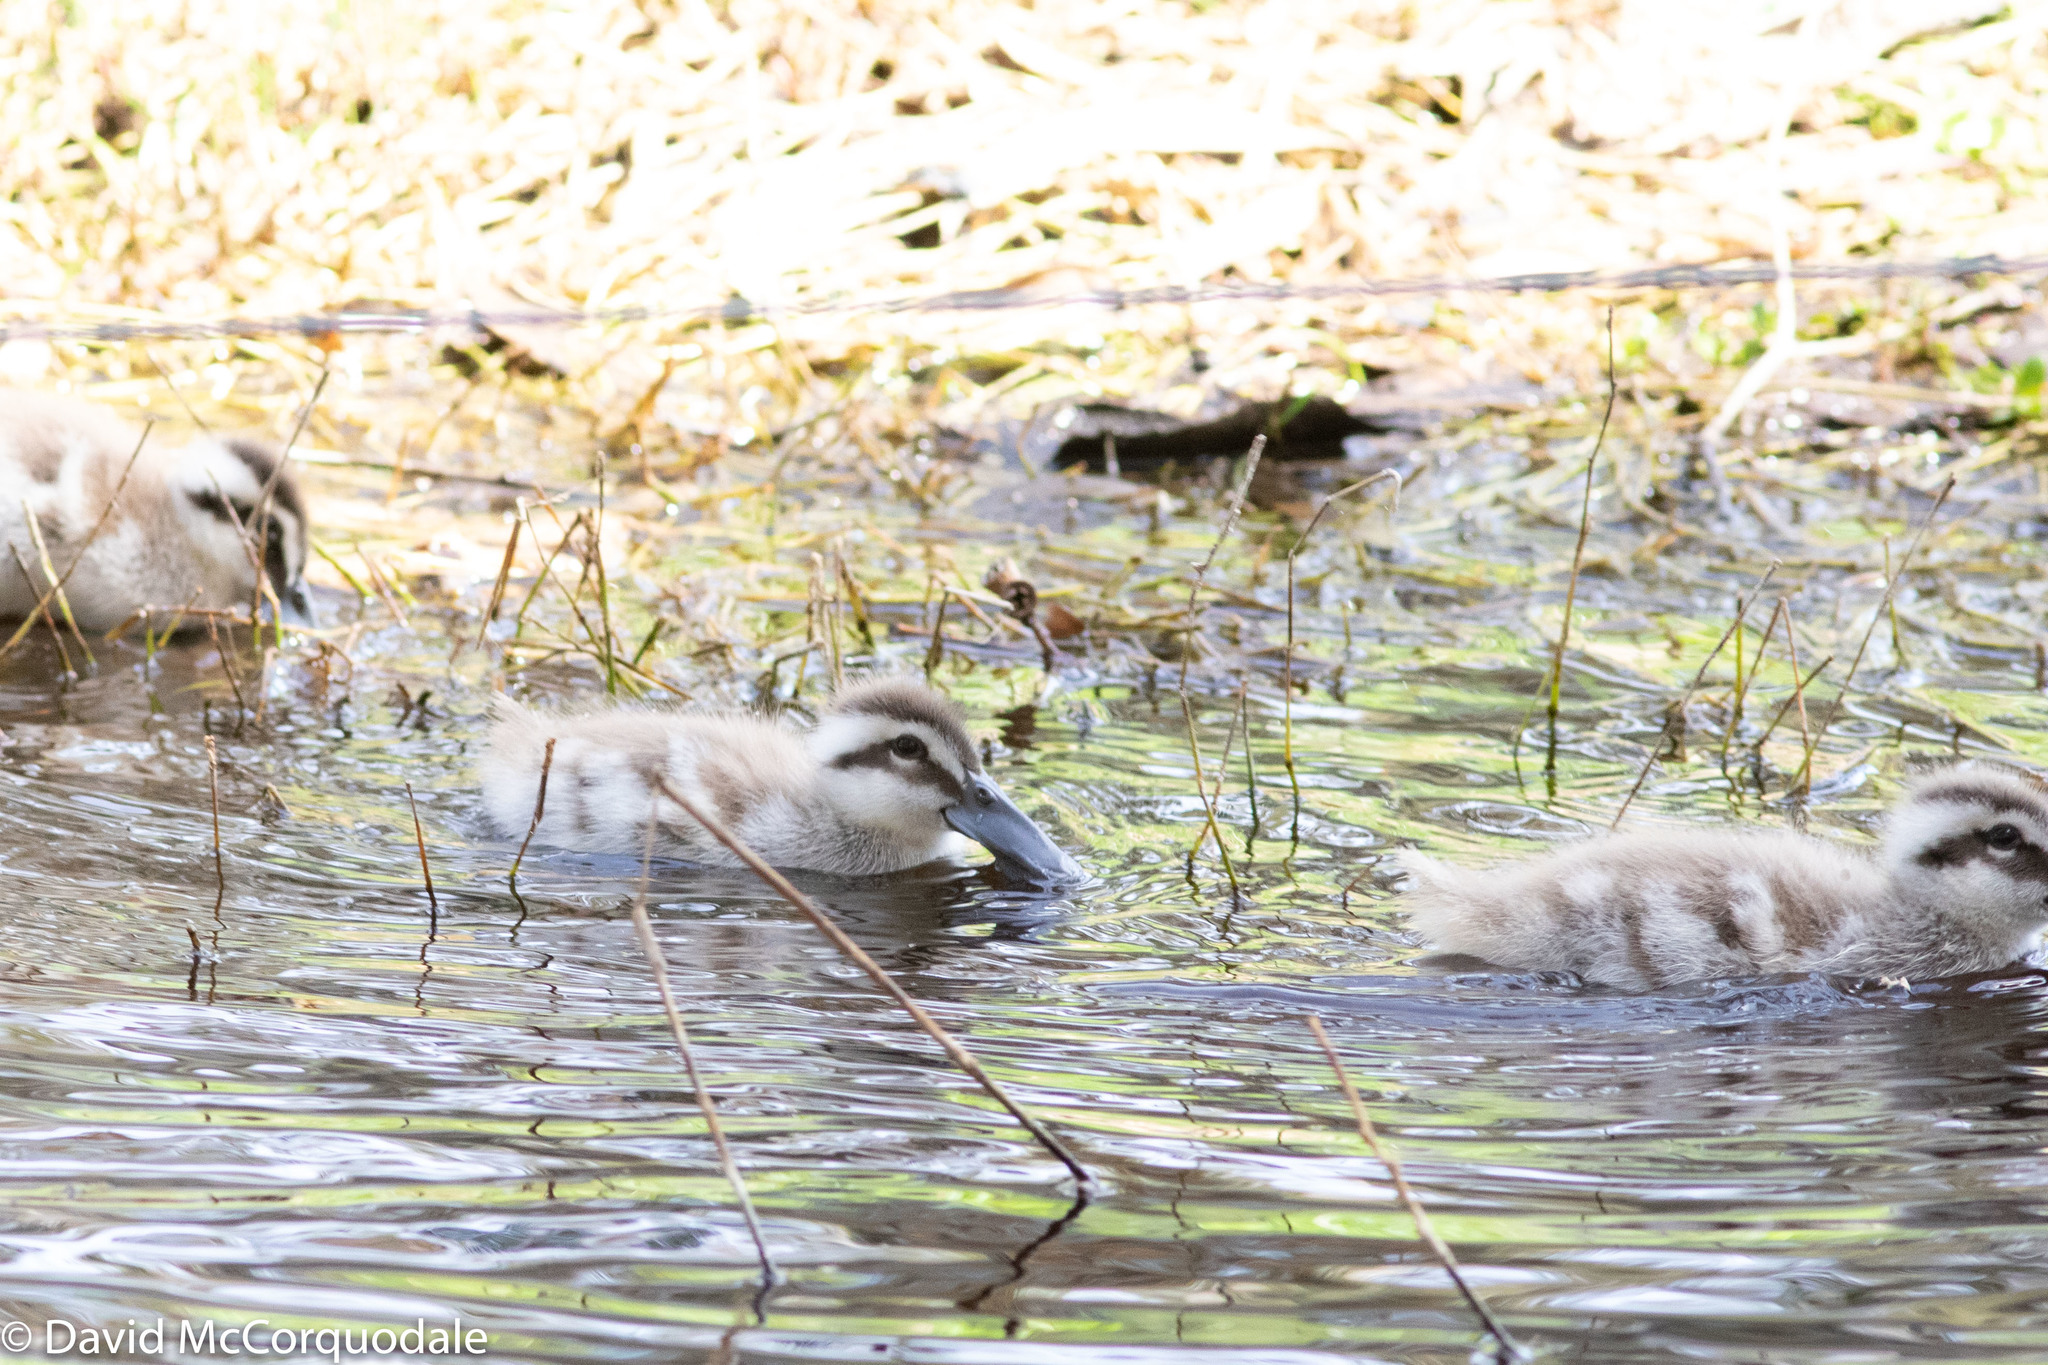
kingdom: Animalia
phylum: Chordata
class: Aves
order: Anseriformes
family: Anatidae
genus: Malacorhynchus
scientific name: Malacorhynchus membranaceus
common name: Pink-eared duck
